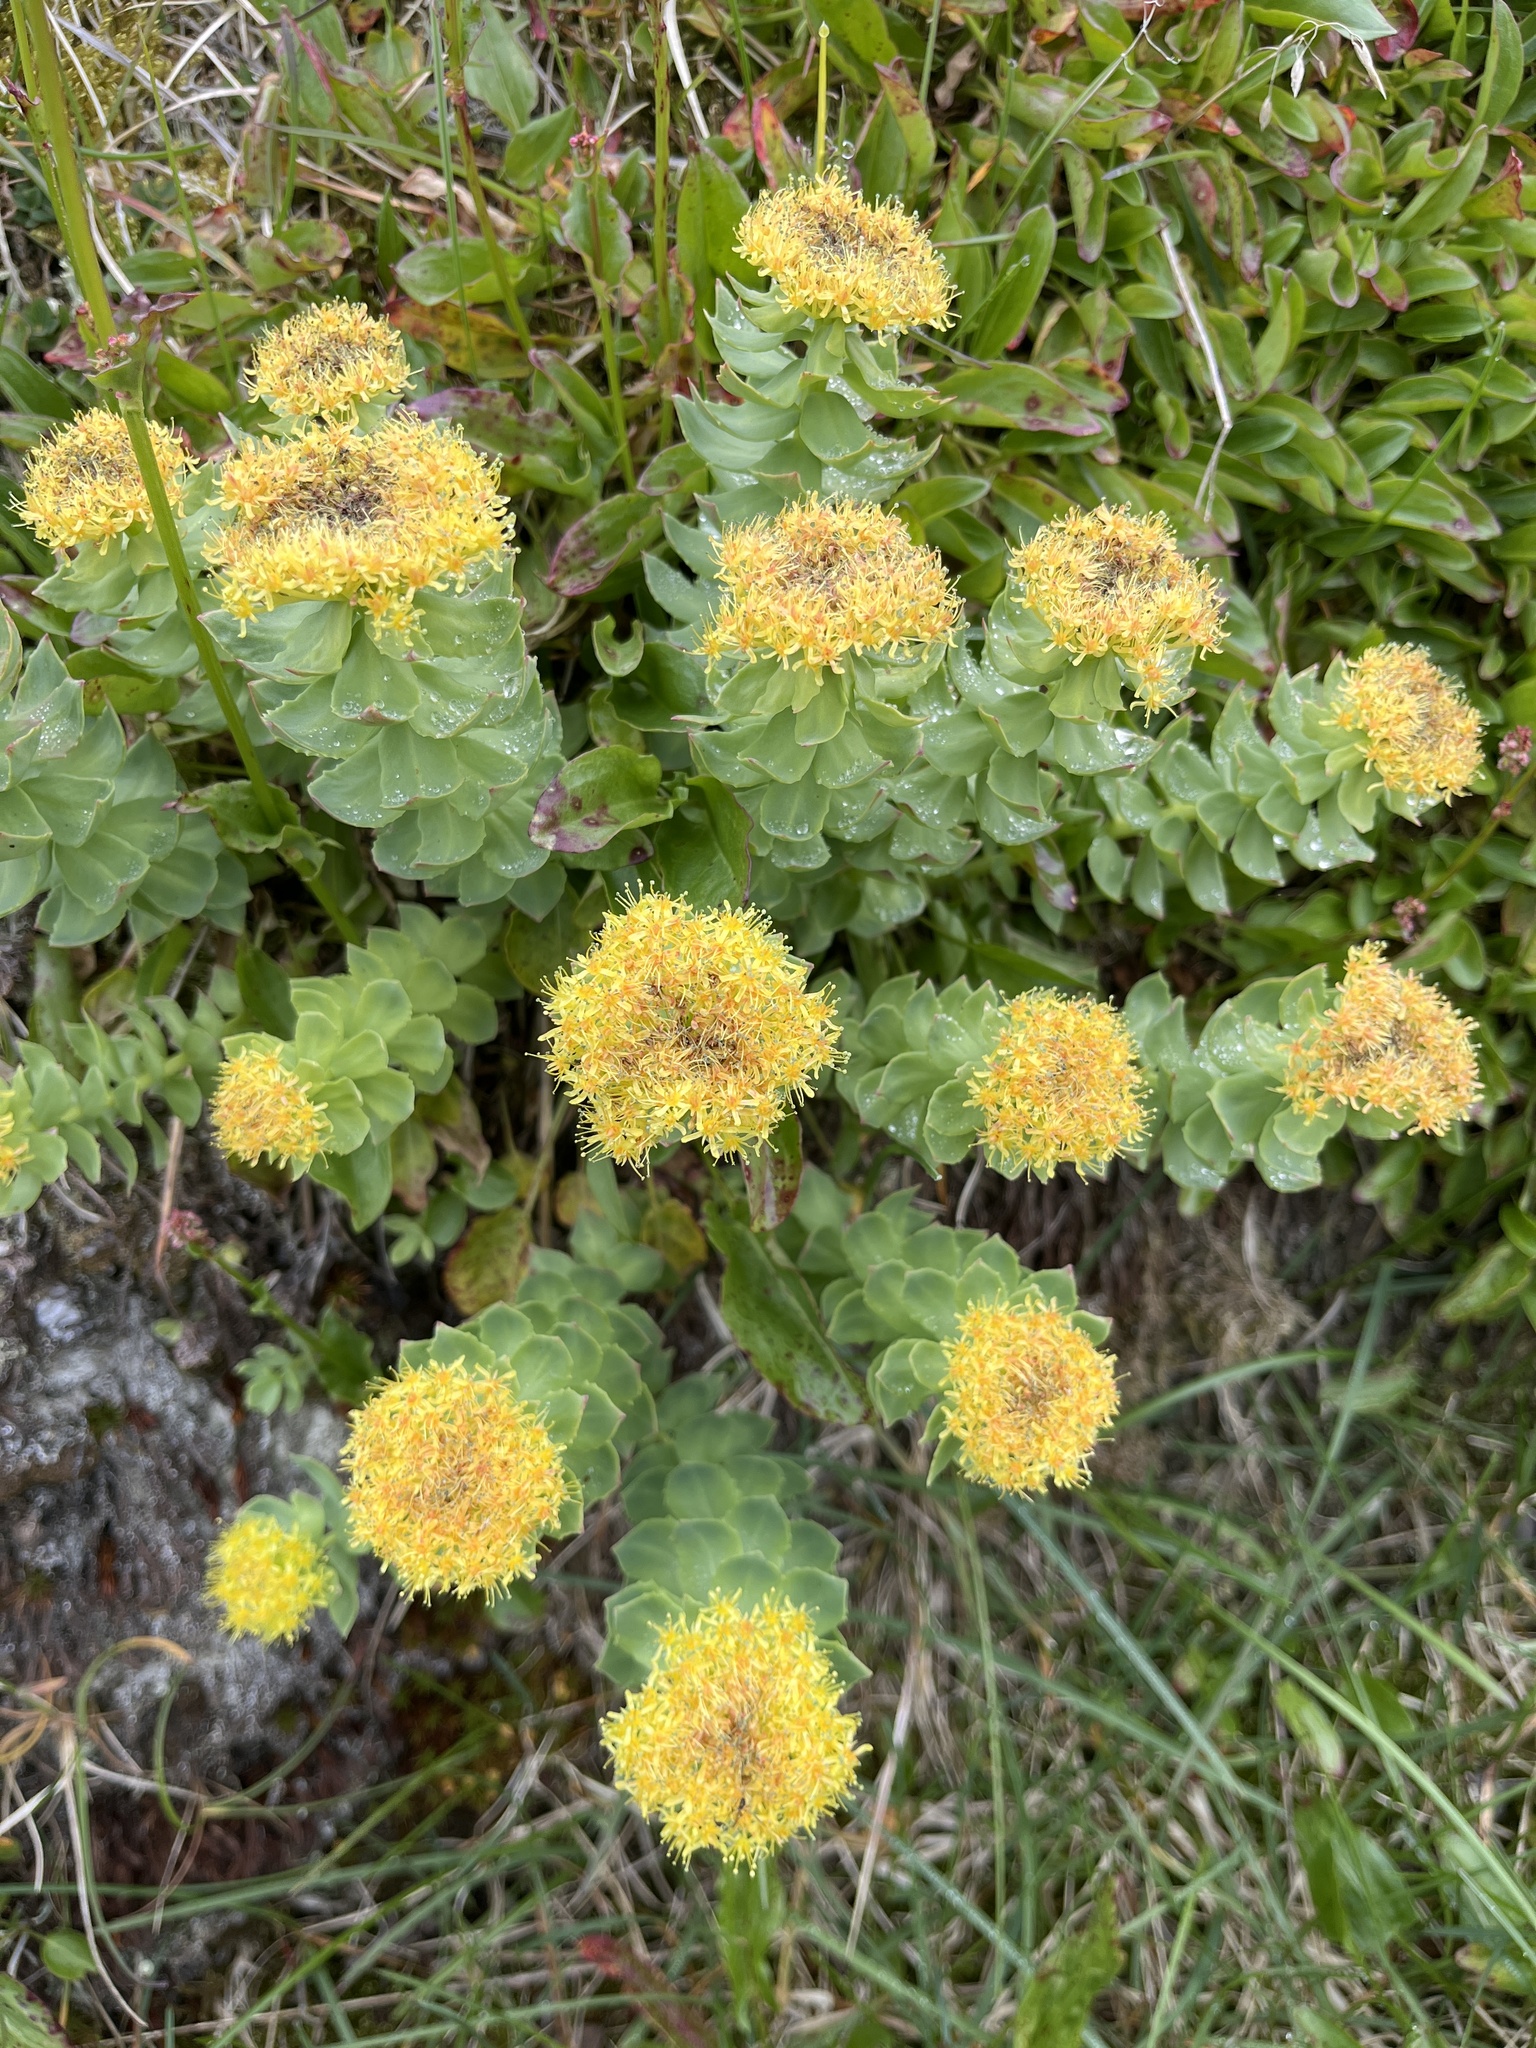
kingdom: Plantae
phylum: Tracheophyta
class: Magnoliopsida
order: Saxifragales
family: Crassulaceae
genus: Rhodiola
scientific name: Rhodiola rosea
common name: Roseroot
